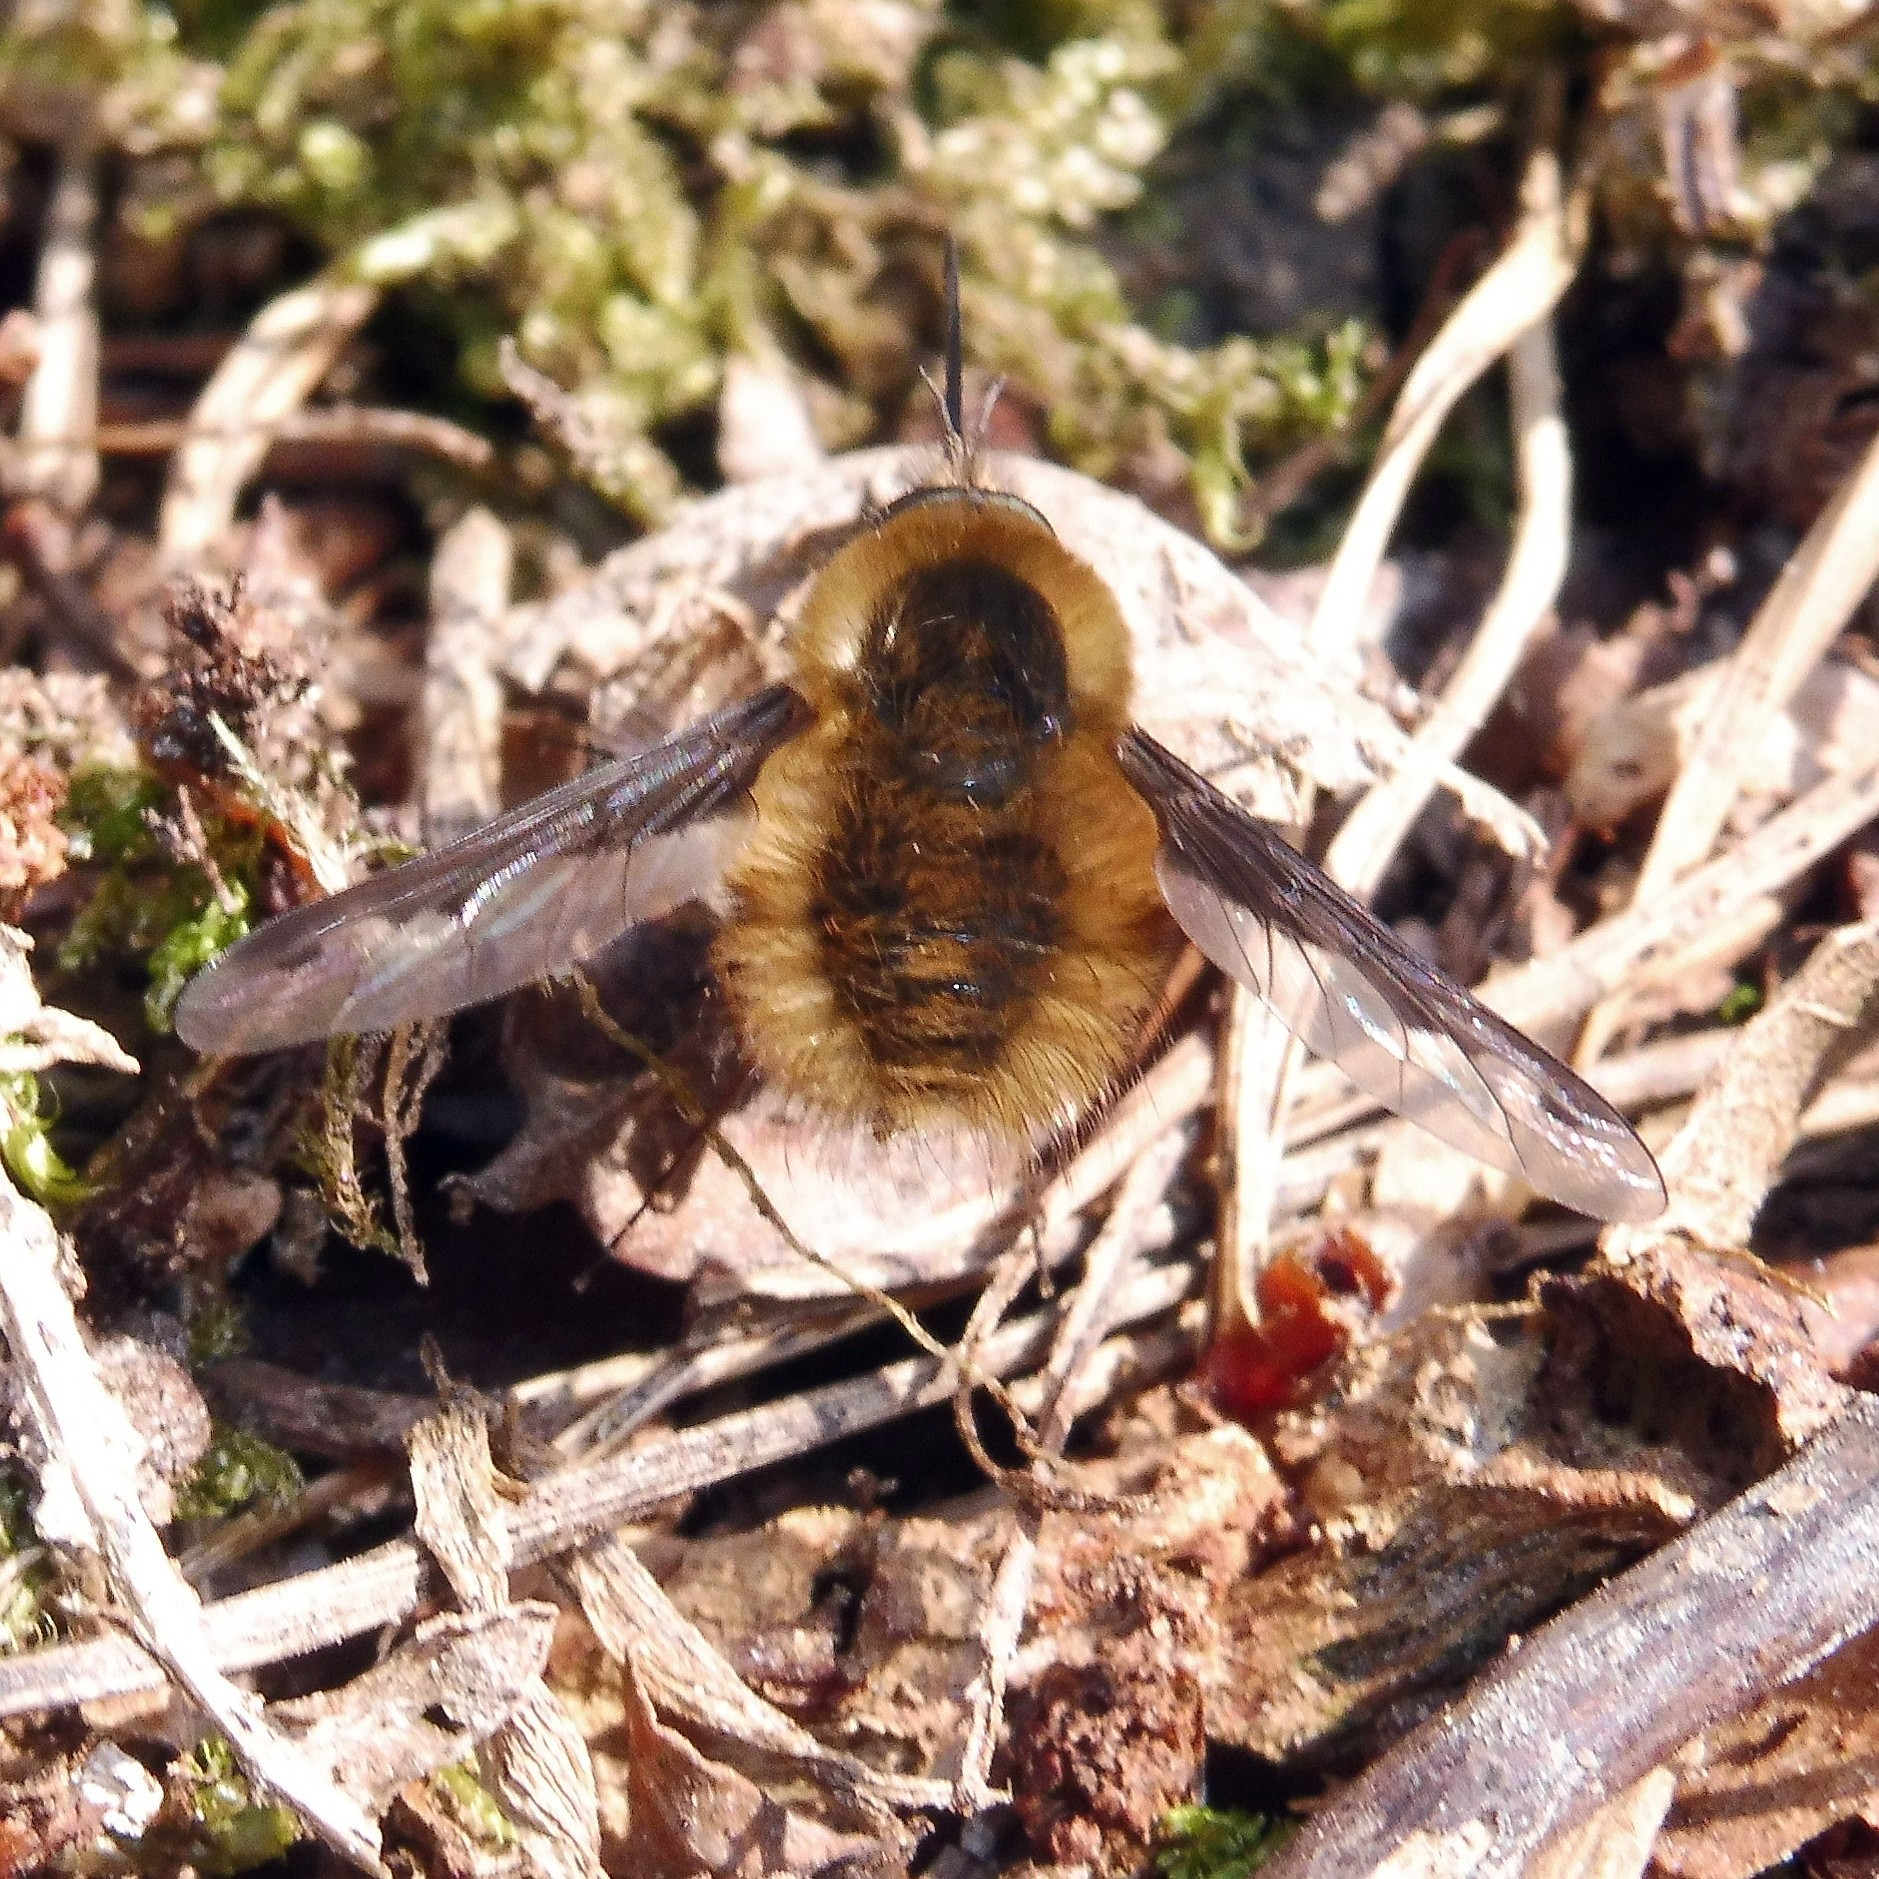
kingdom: Animalia
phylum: Arthropoda
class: Insecta
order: Diptera
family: Bombyliidae
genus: Bombylius
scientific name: Bombylius major
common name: Bee fly
